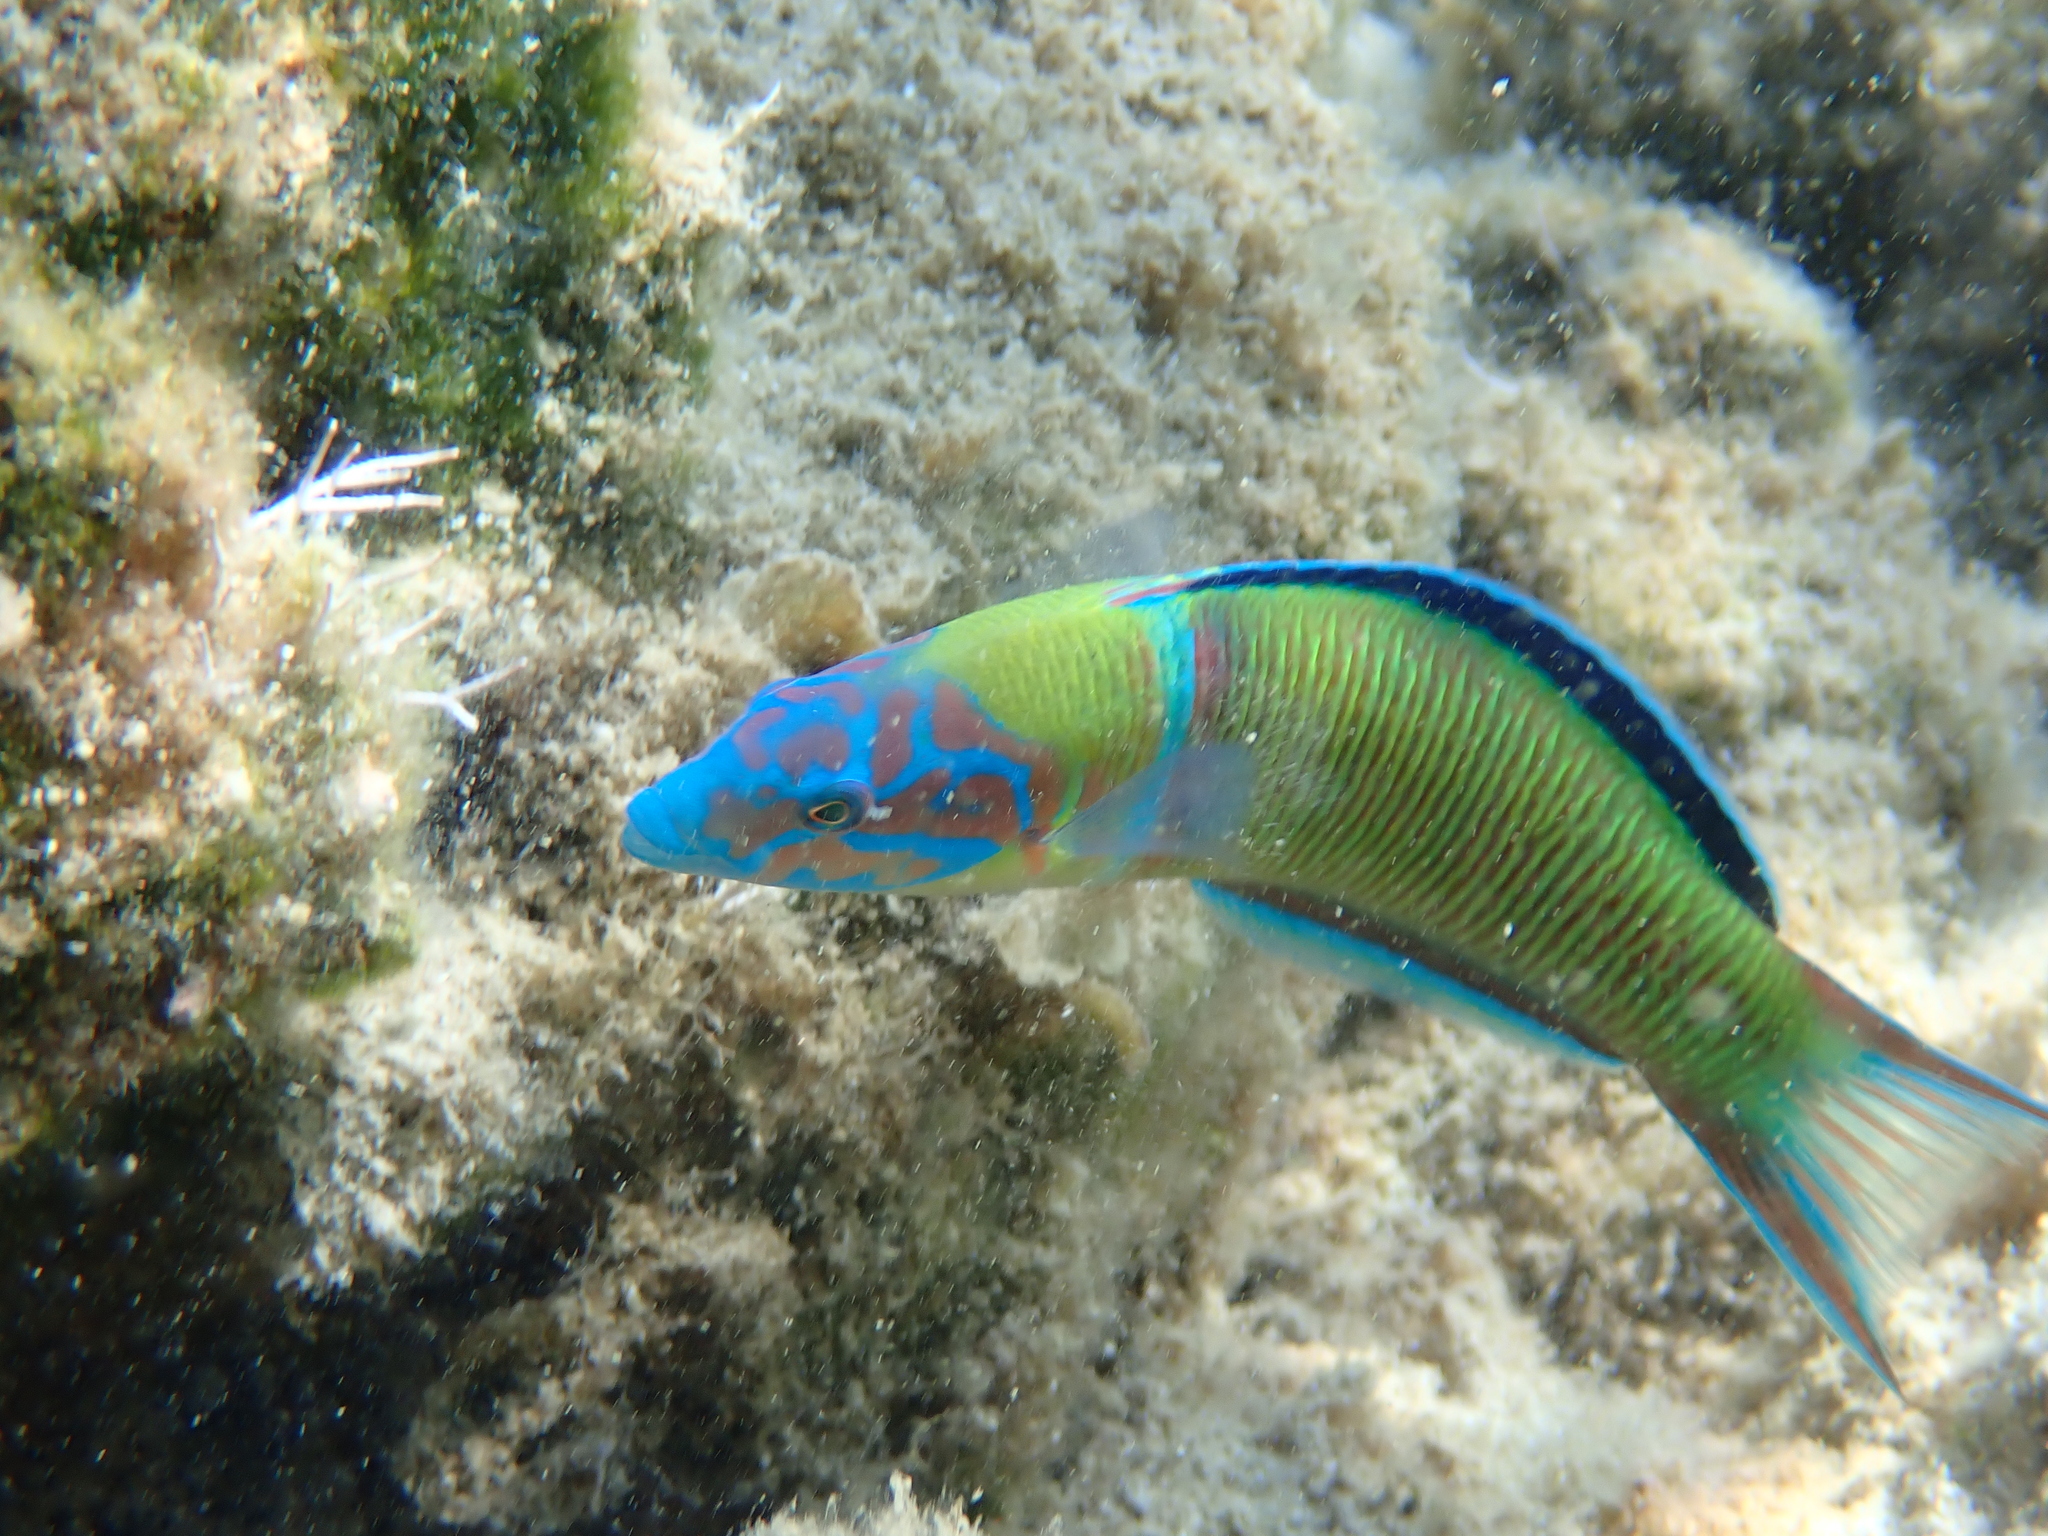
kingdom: Animalia
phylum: Chordata
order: Perciformes
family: Labridae
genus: Thalassoma
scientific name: Thalassoma pavo
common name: Ornate wrasse
